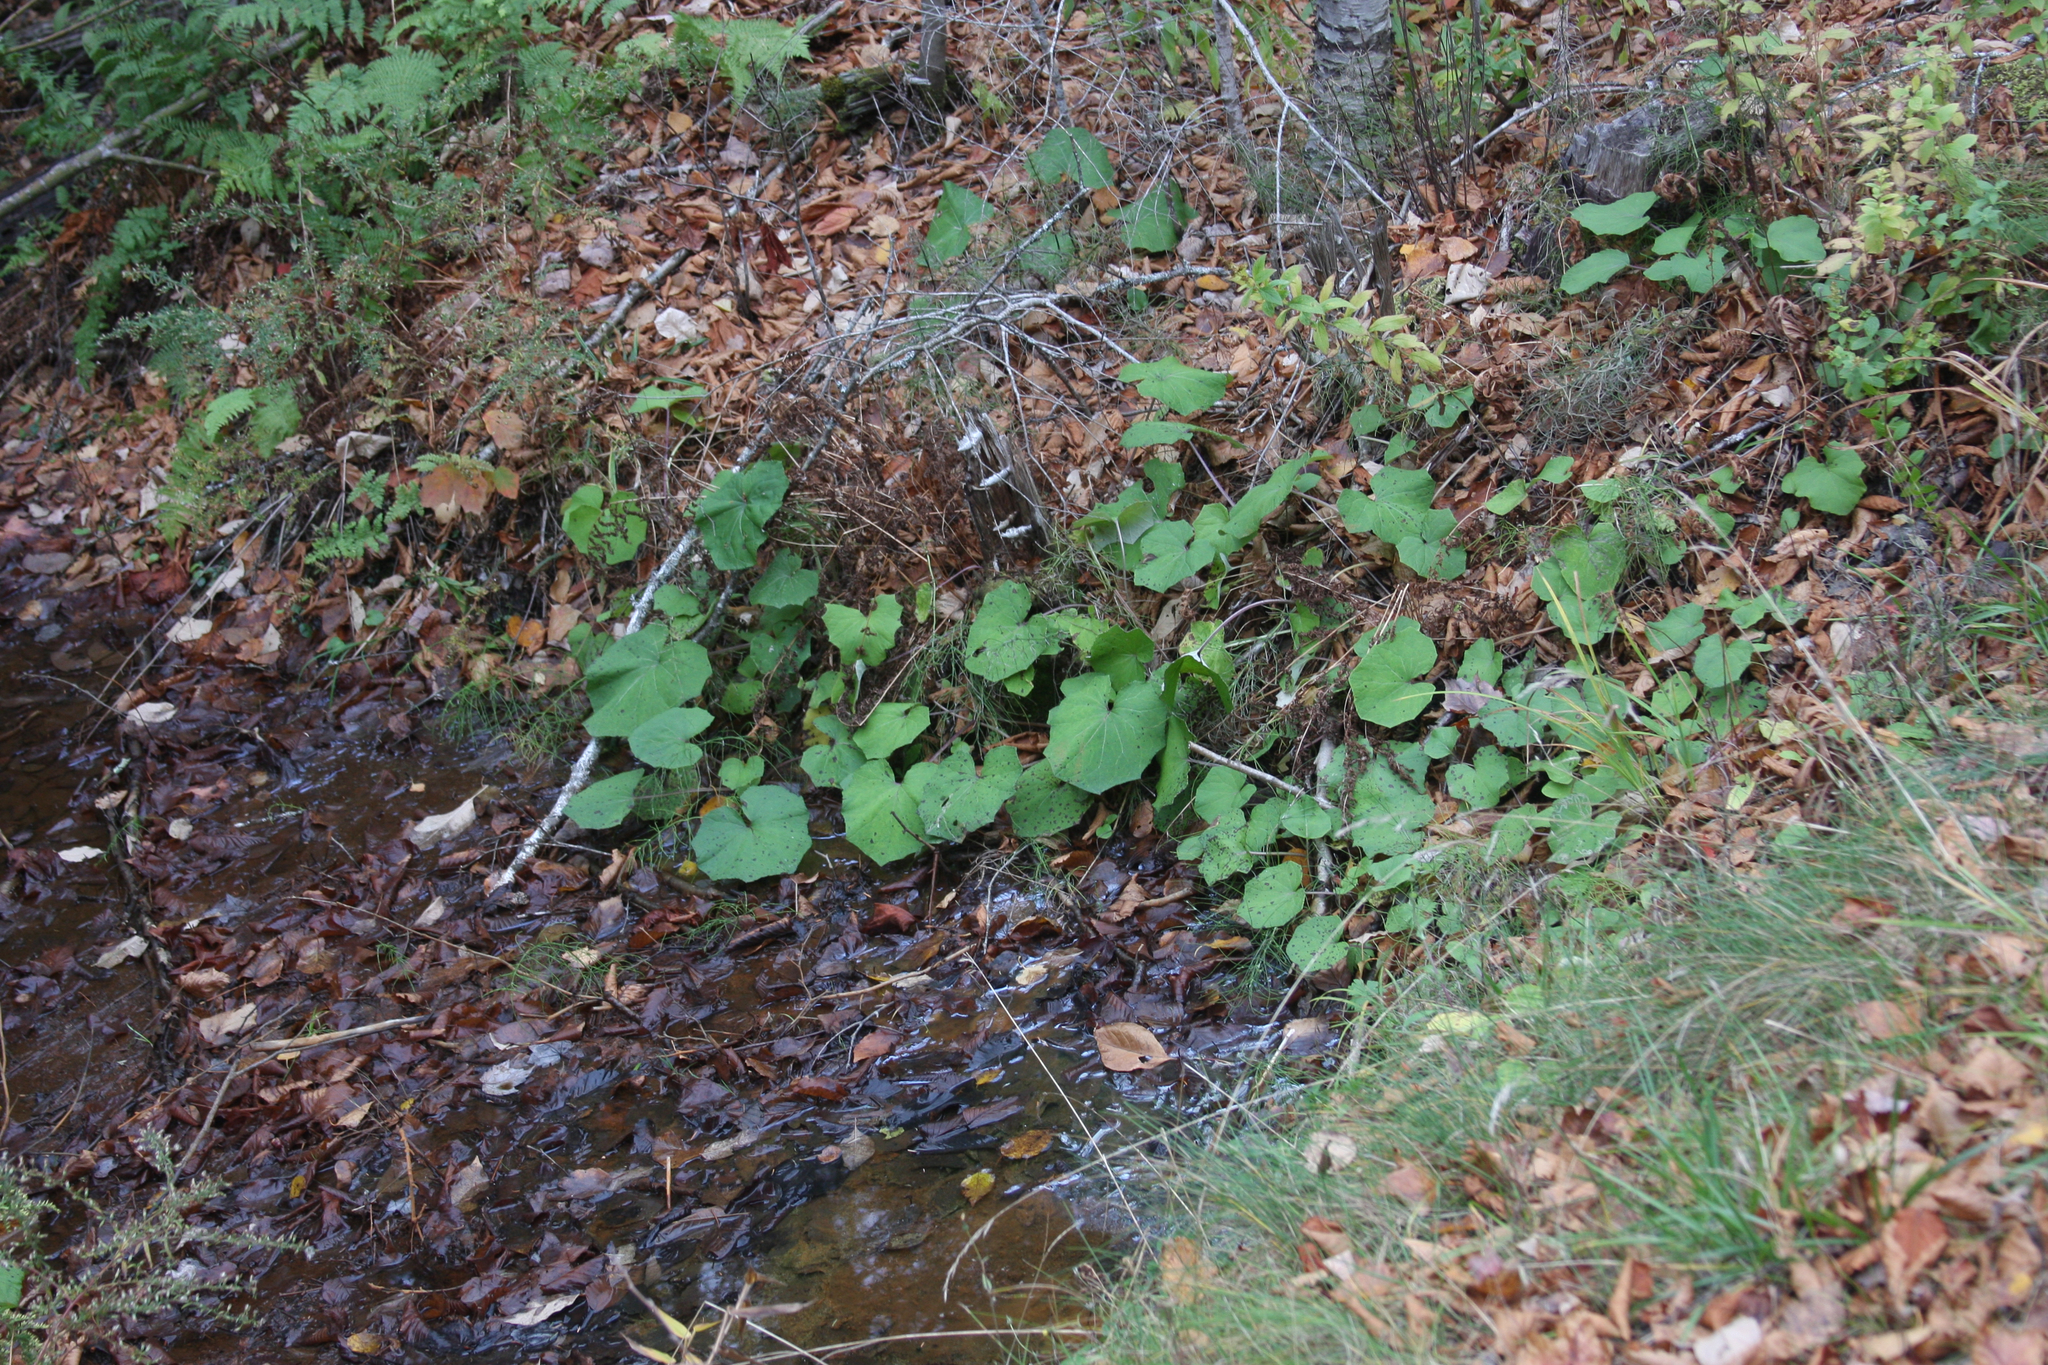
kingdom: Plantae
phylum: Tracheophyta
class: Magnoliopsida
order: Asterales
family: Asteraceae
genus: Tussilago
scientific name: Tussilago farfara
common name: Coltsfoot
